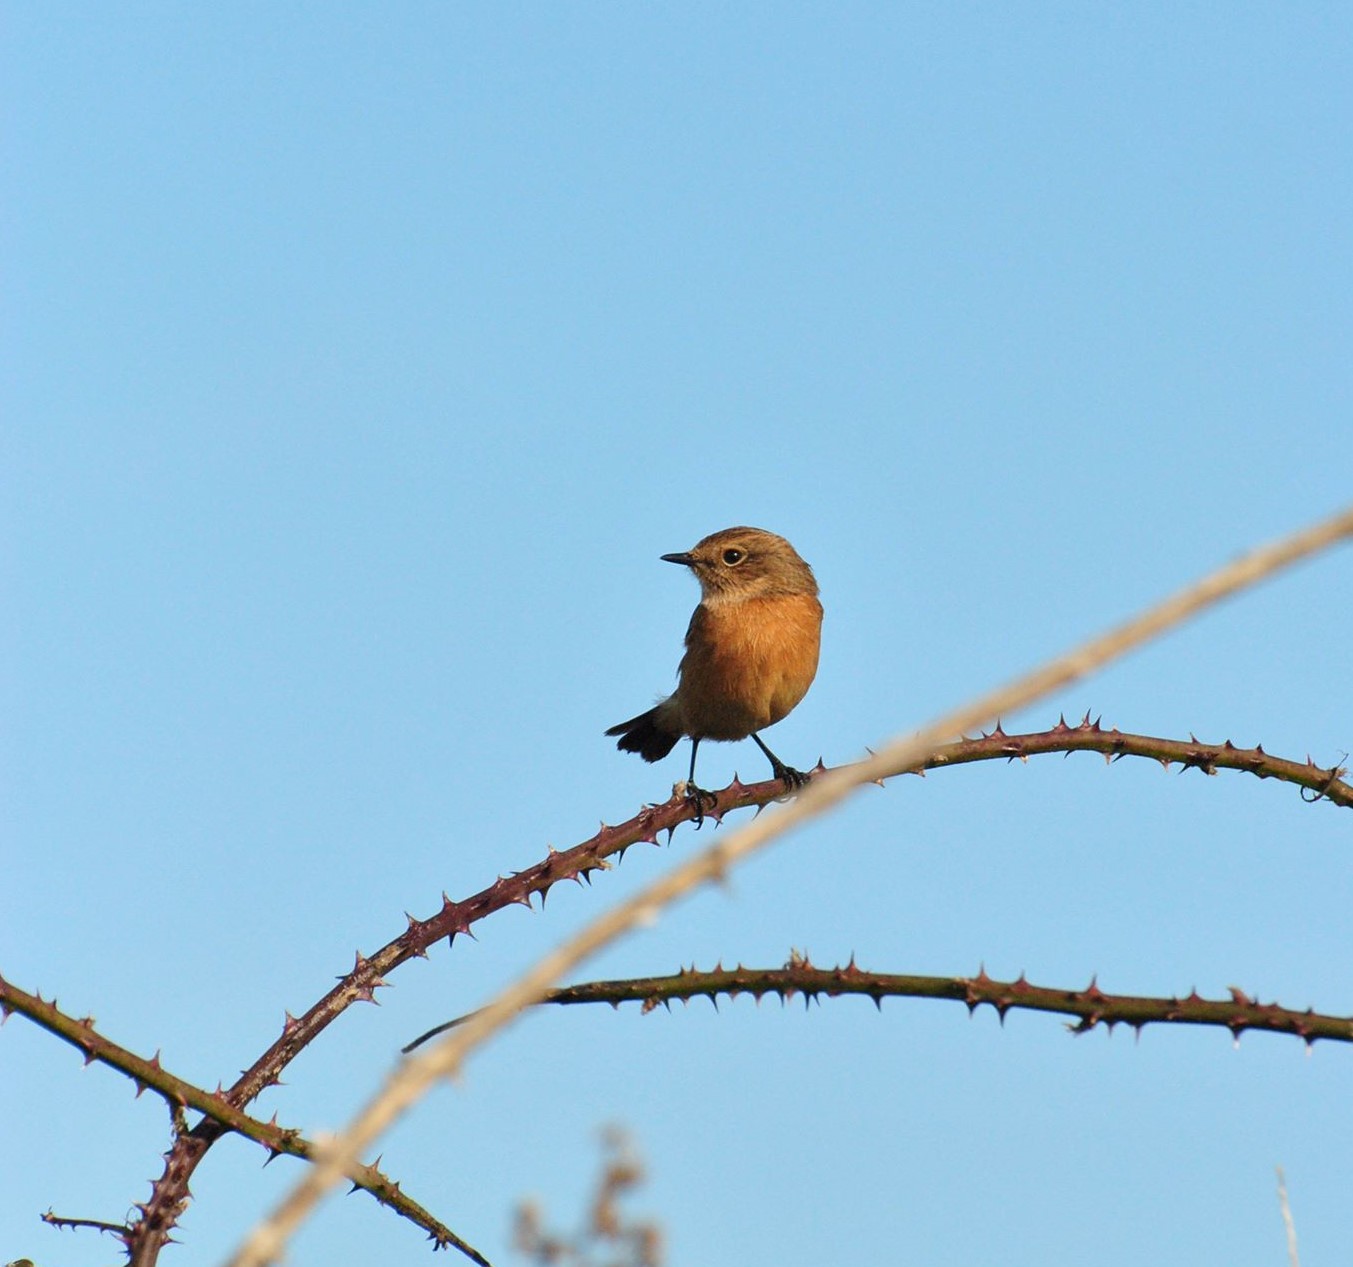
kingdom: Animalia
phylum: Chordata
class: Aves
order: Passeriformes
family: Muscicapidae
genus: Saxicola
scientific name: Saxicola rubicola
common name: European stonechat
